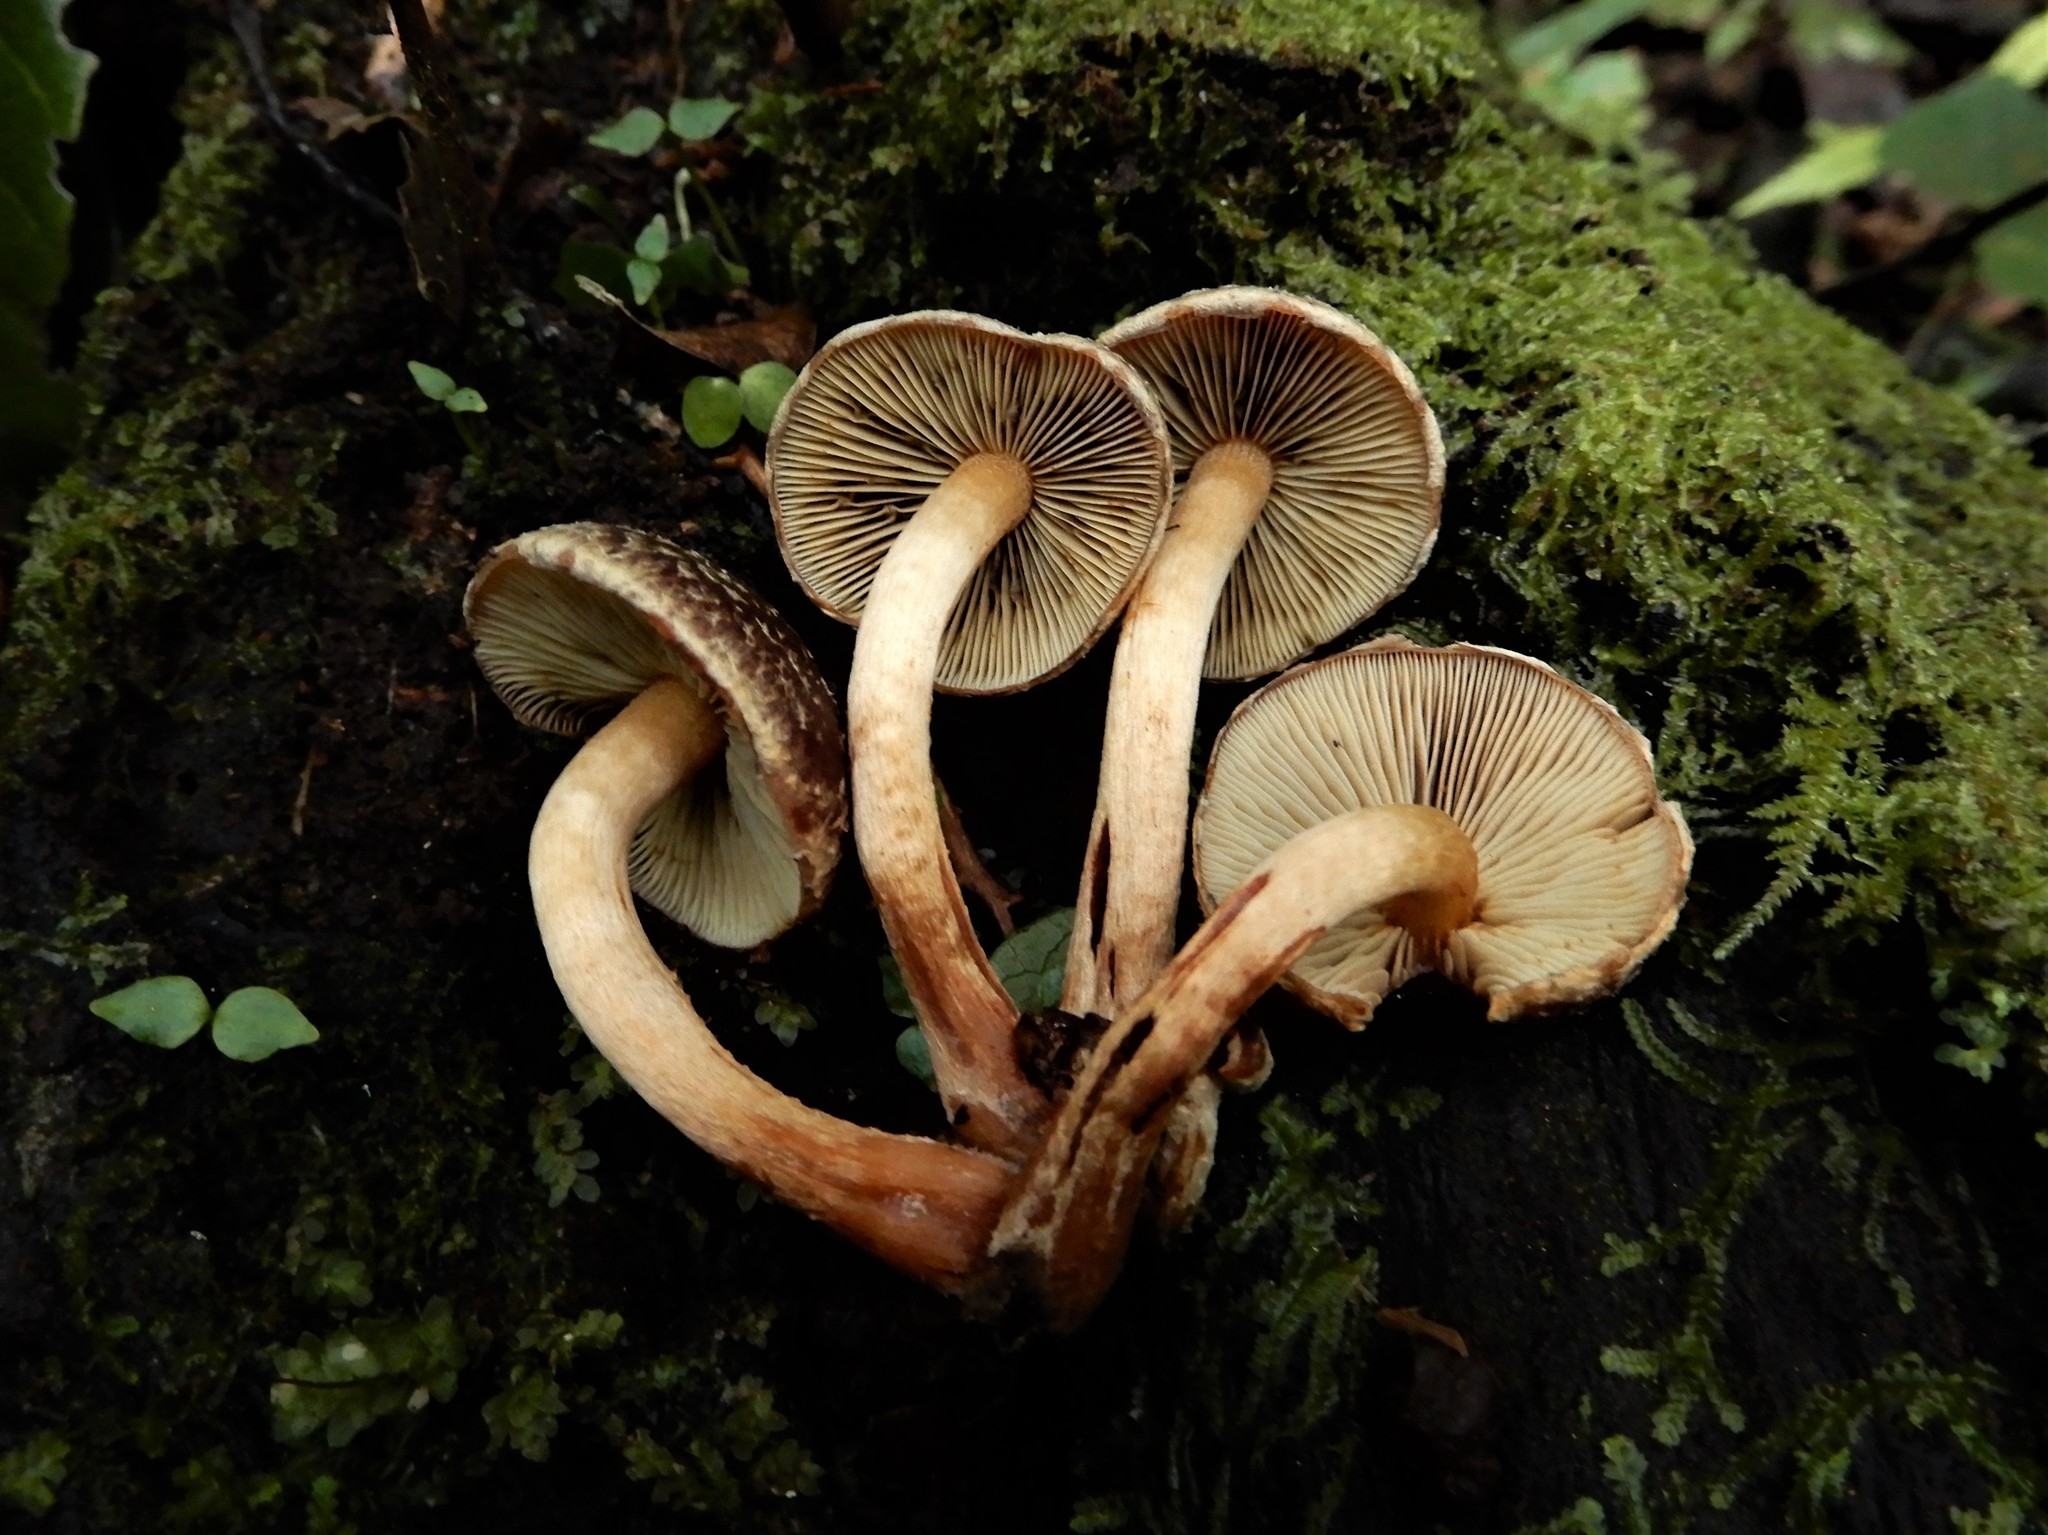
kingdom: Fungi
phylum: Basidiomycota
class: Agaricomycetes
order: Agaricales
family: Strophariaceae
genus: Hypholoma
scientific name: Hypholoma brunneum
